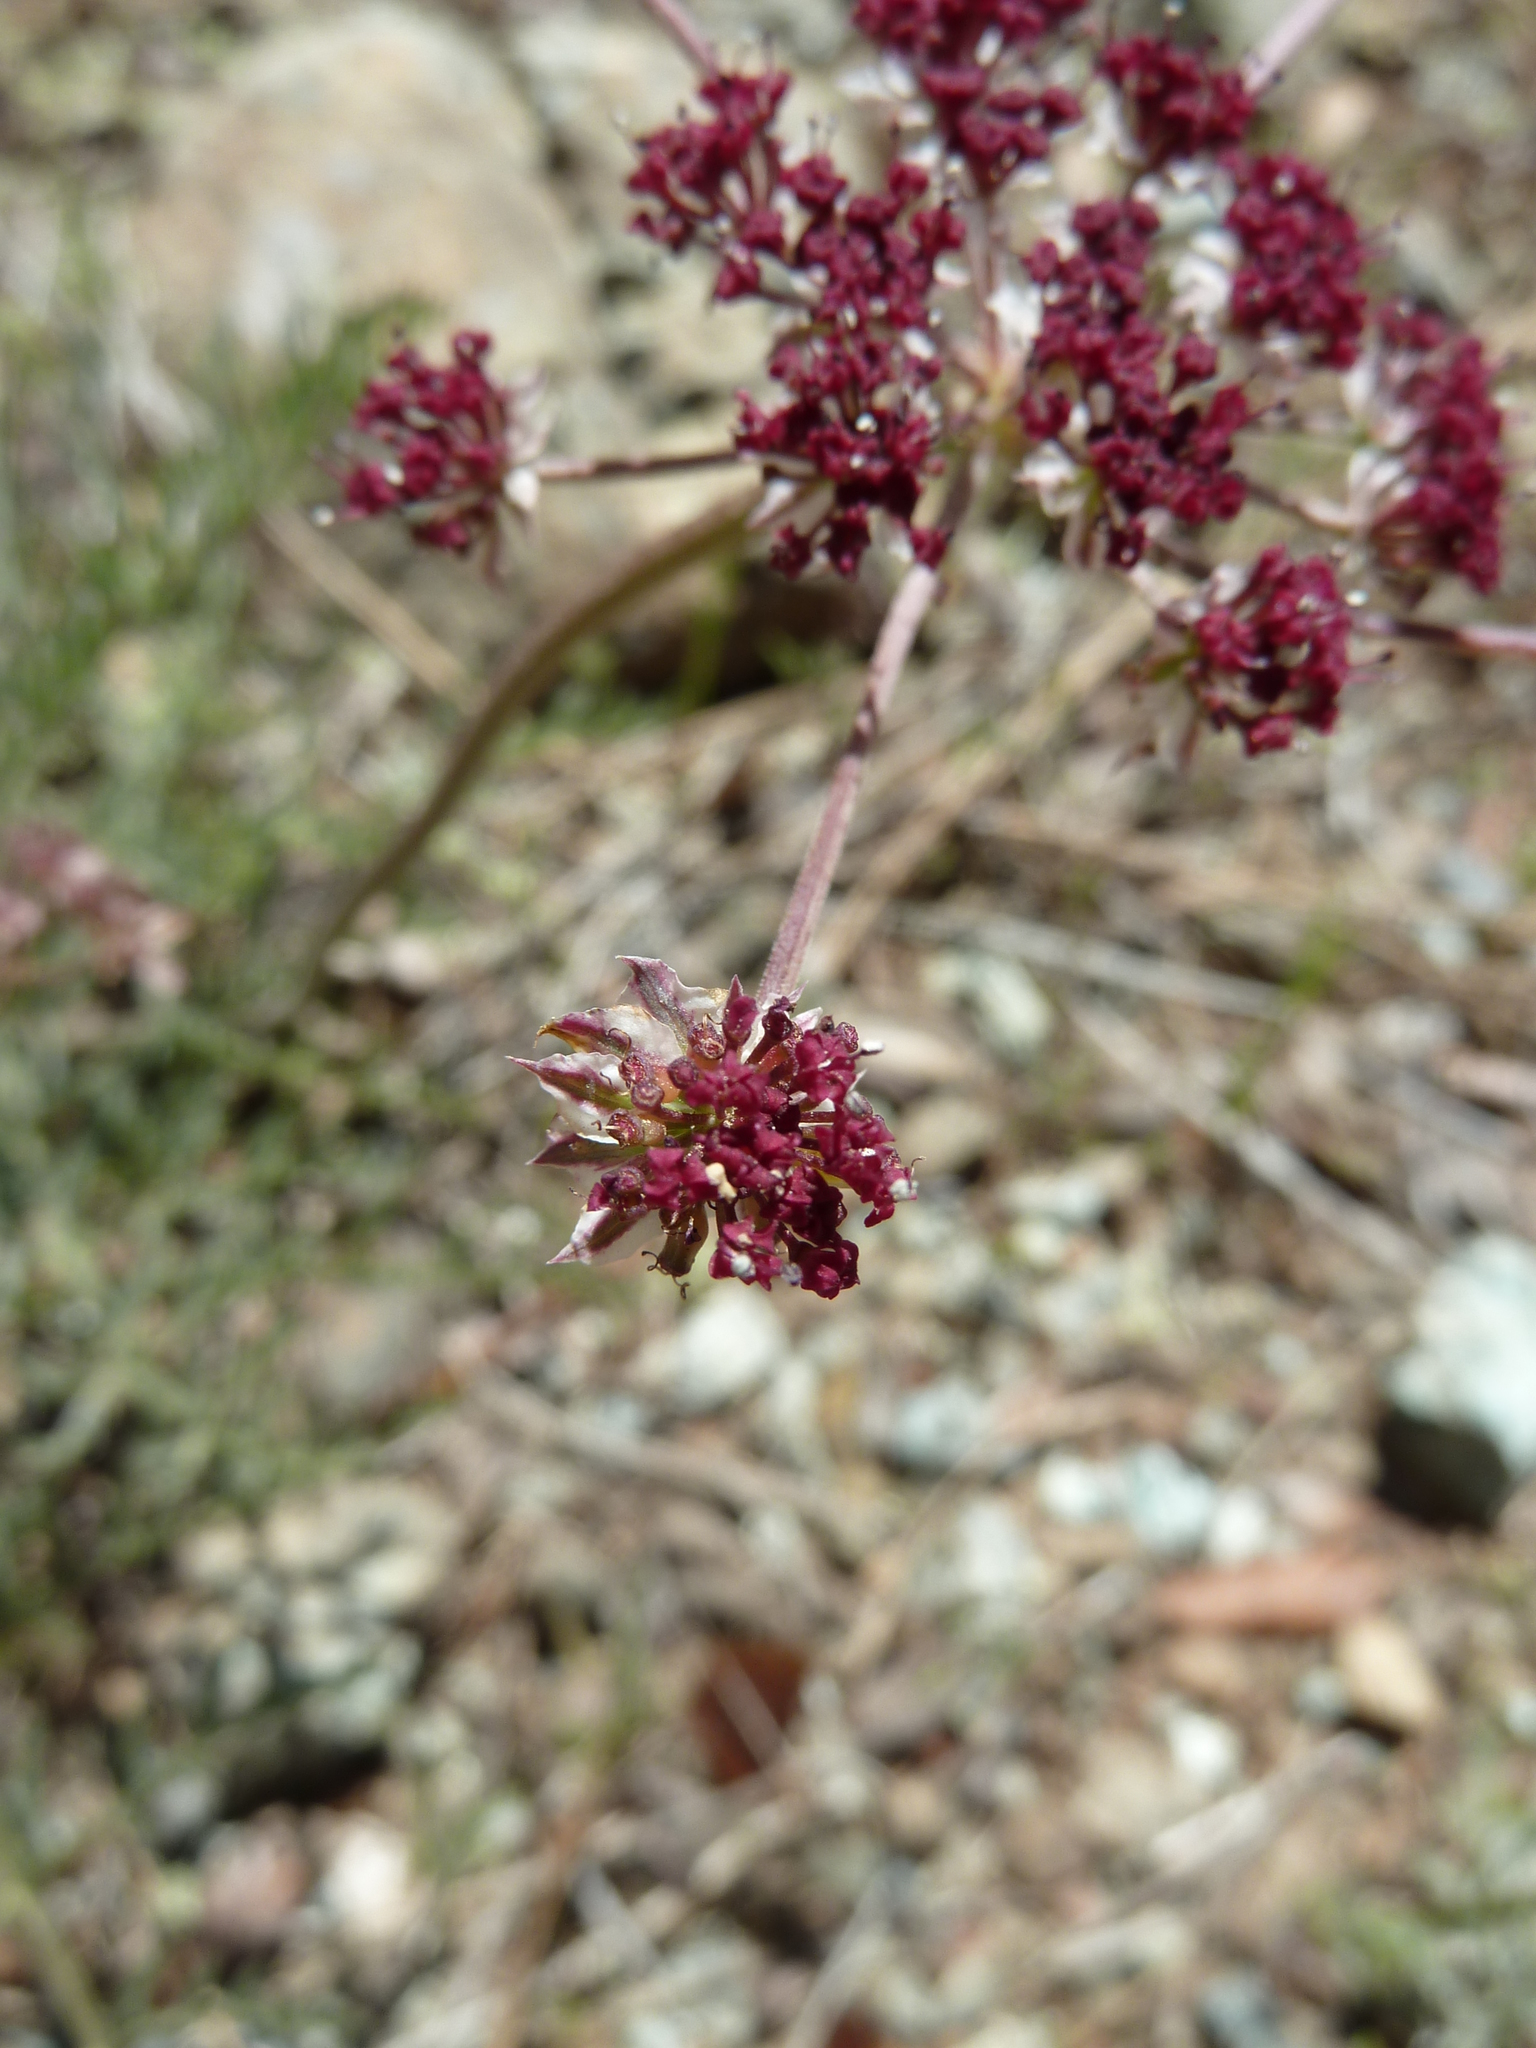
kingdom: Plantae
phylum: Tracheophyta
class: Magnoliopsida
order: Apiales
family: Apiaceae
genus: Lomatium
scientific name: Lomatium hooveri
